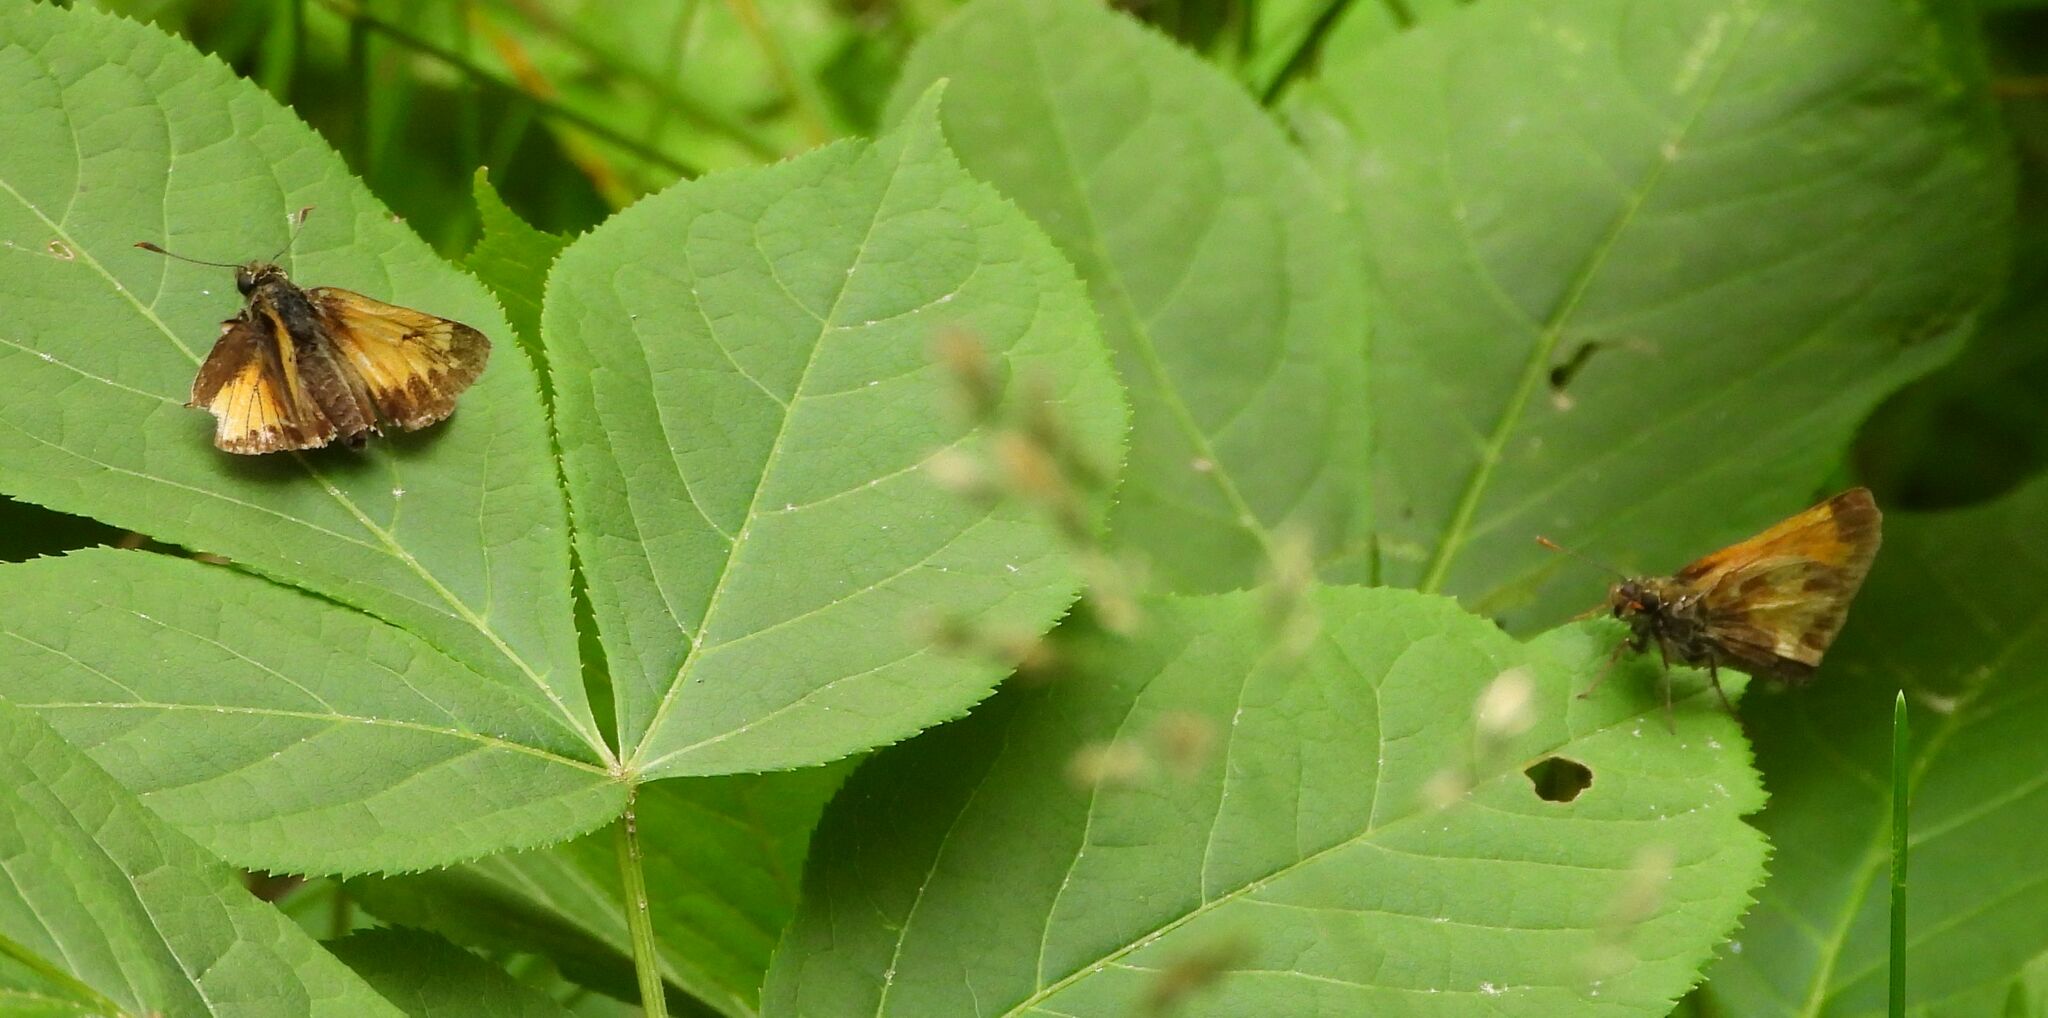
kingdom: Animalia
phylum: Arthropoda
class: Insecta
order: Lepidoptera
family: Hesperiidae
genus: Lon
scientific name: Lon hobomok
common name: Hobomok skipper
